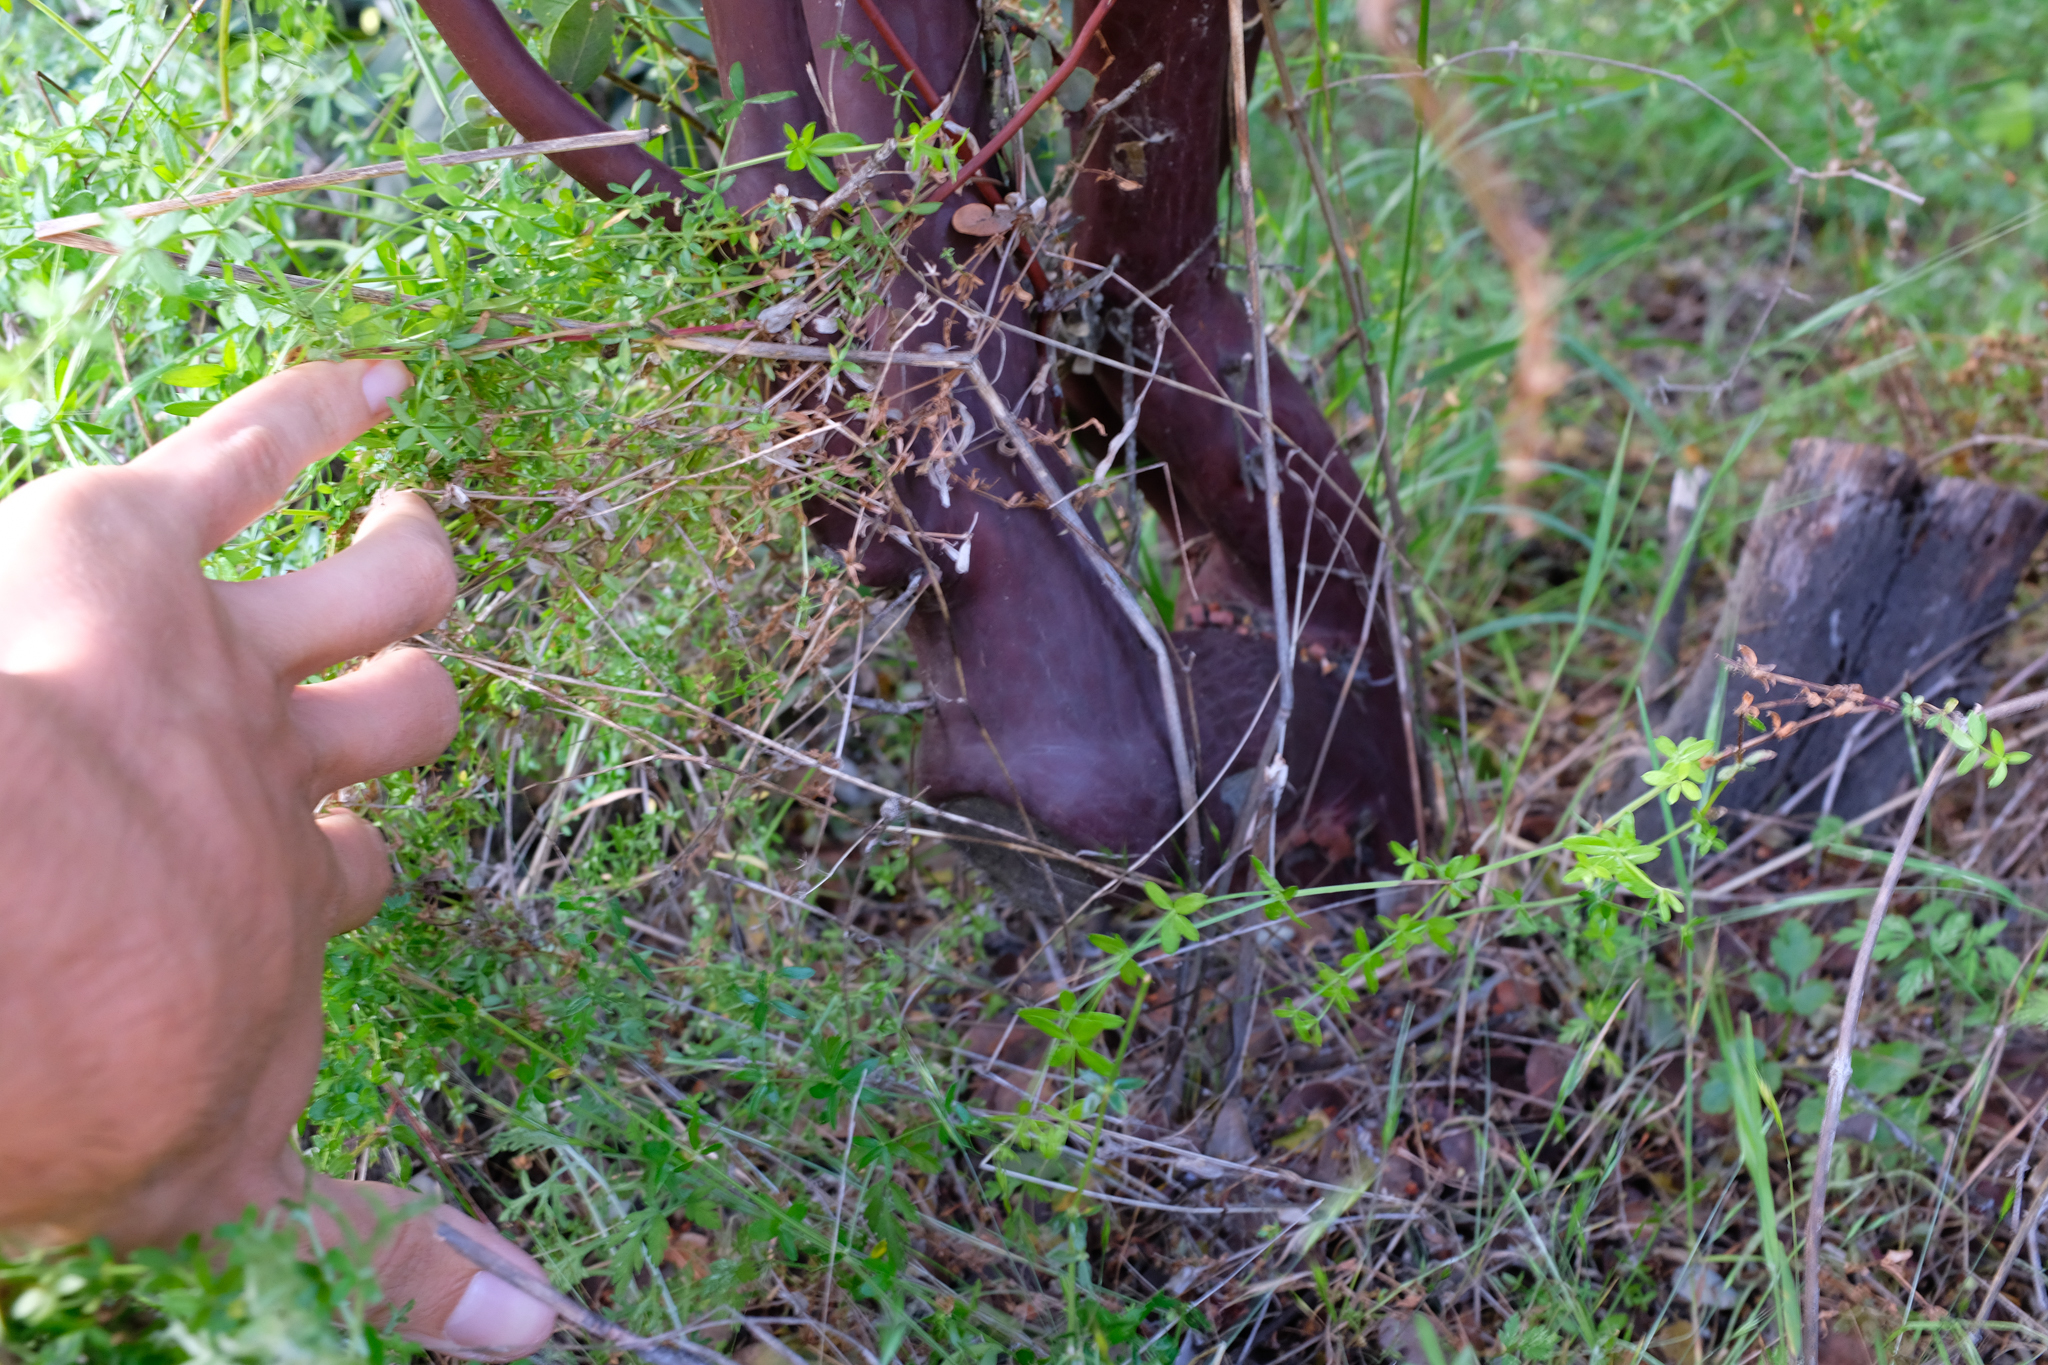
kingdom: Plantae
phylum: Tracheophyta
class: Magnoliopsida
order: Ericales
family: Ericaceae
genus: Arctostaphylos
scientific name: Arctostaphylos obispoensis
